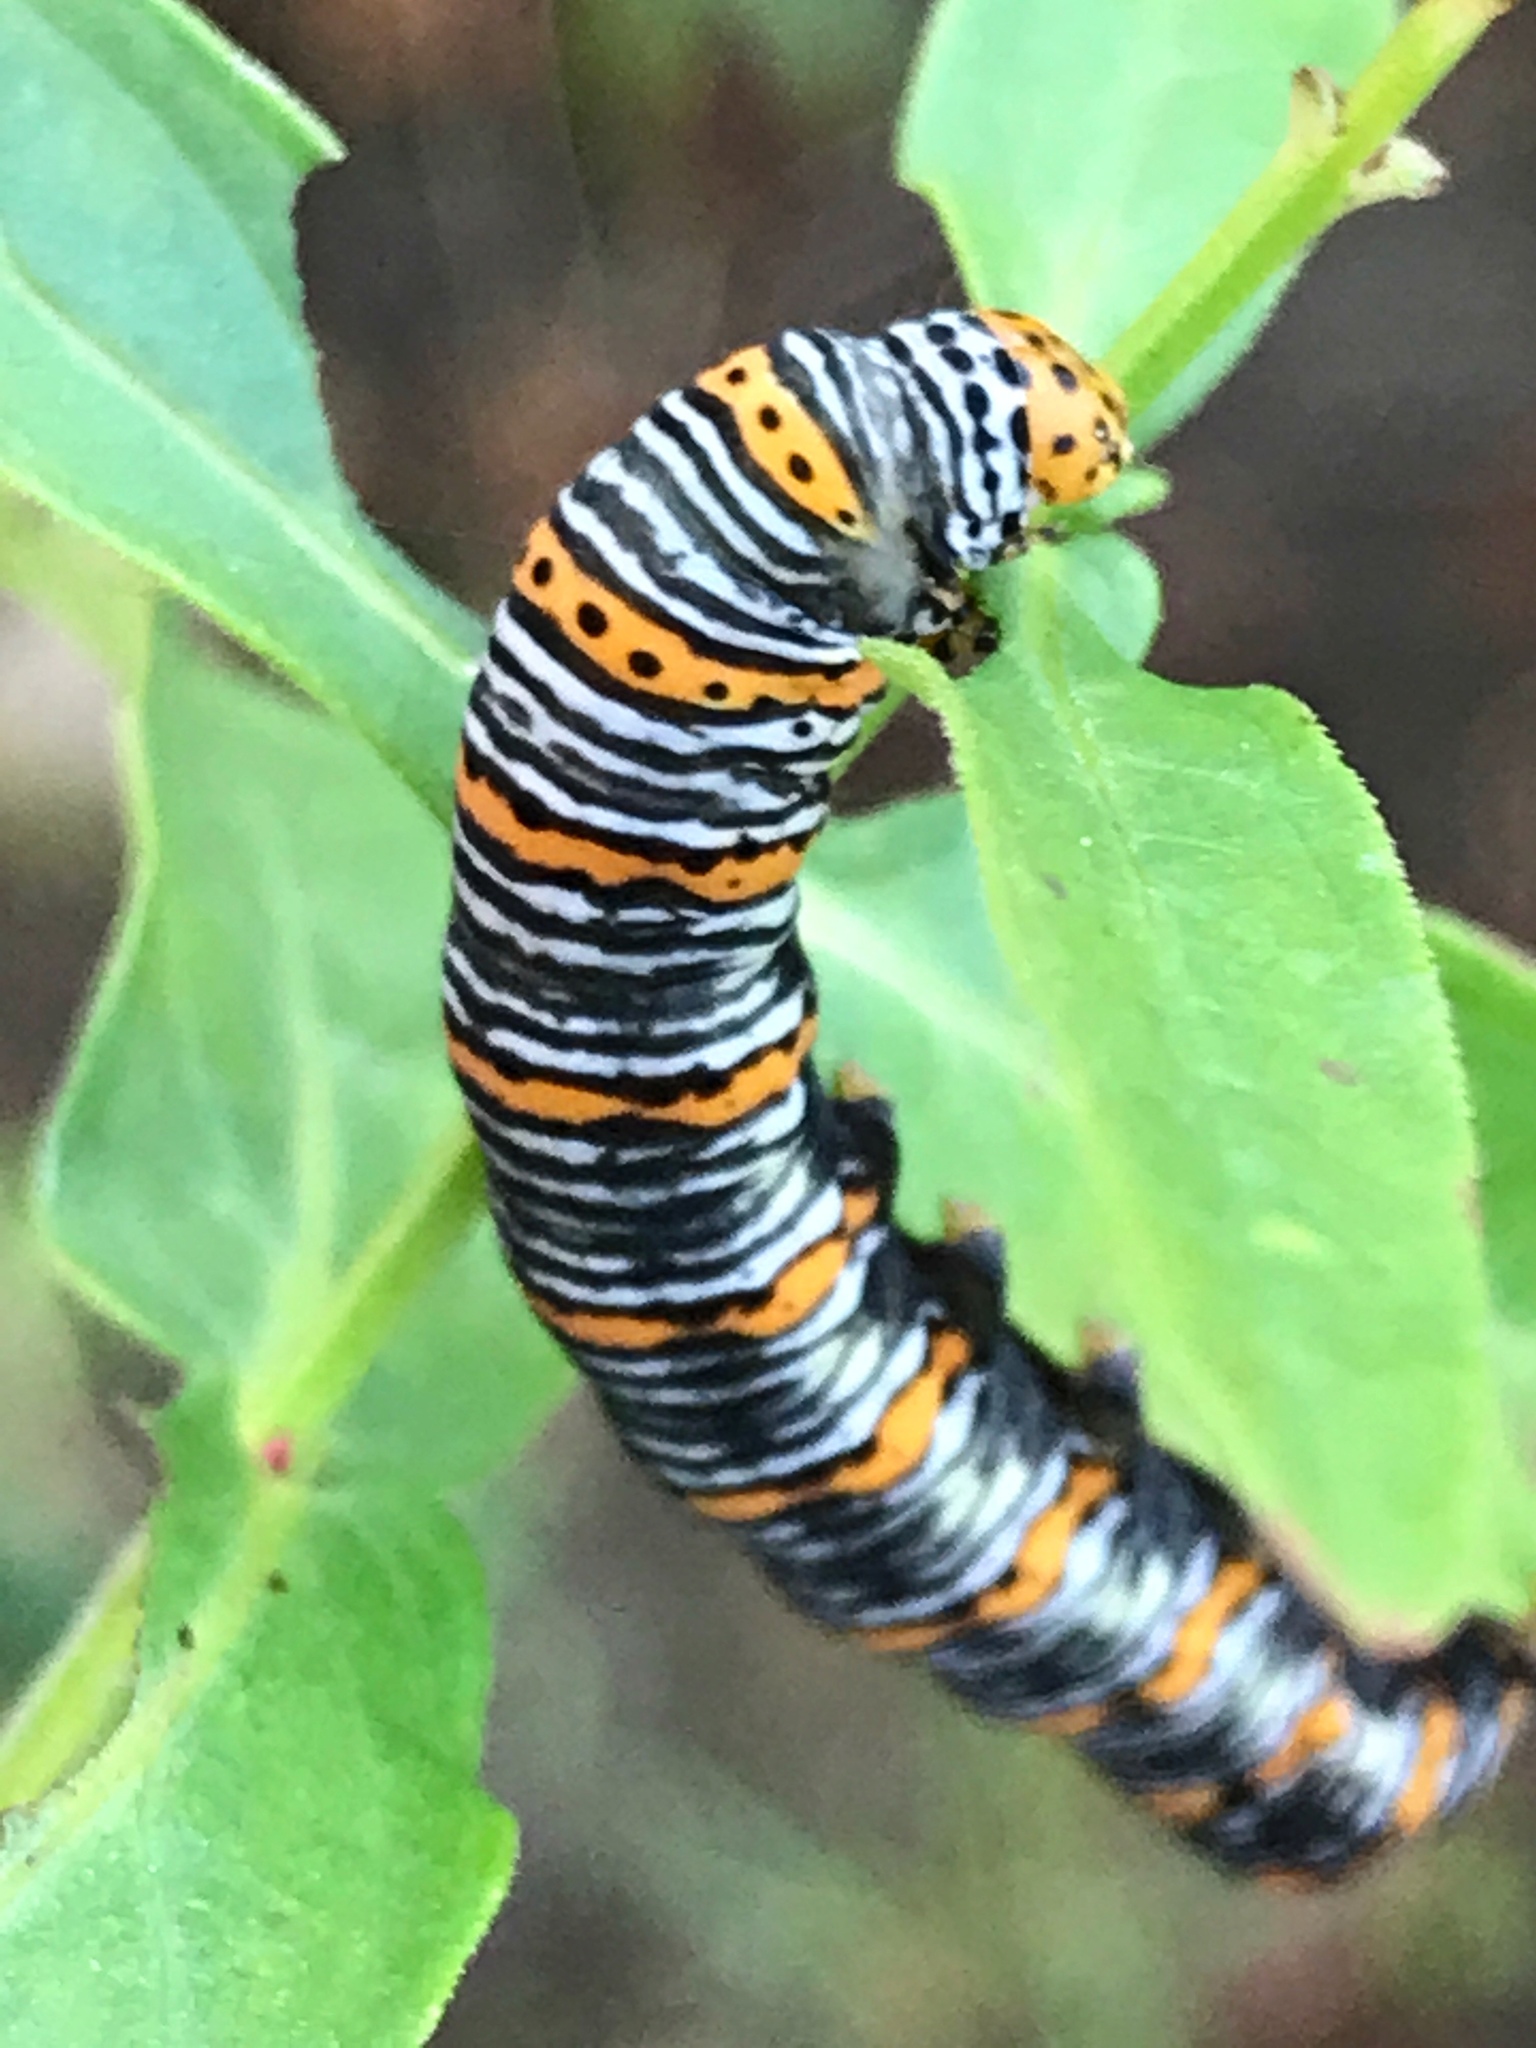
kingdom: Animalia
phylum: Arthropoda
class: Insecta
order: Lepidoptera
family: Noctuidae
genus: Eudryas
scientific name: Eudryas unio
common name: Pearly wood-nymph
